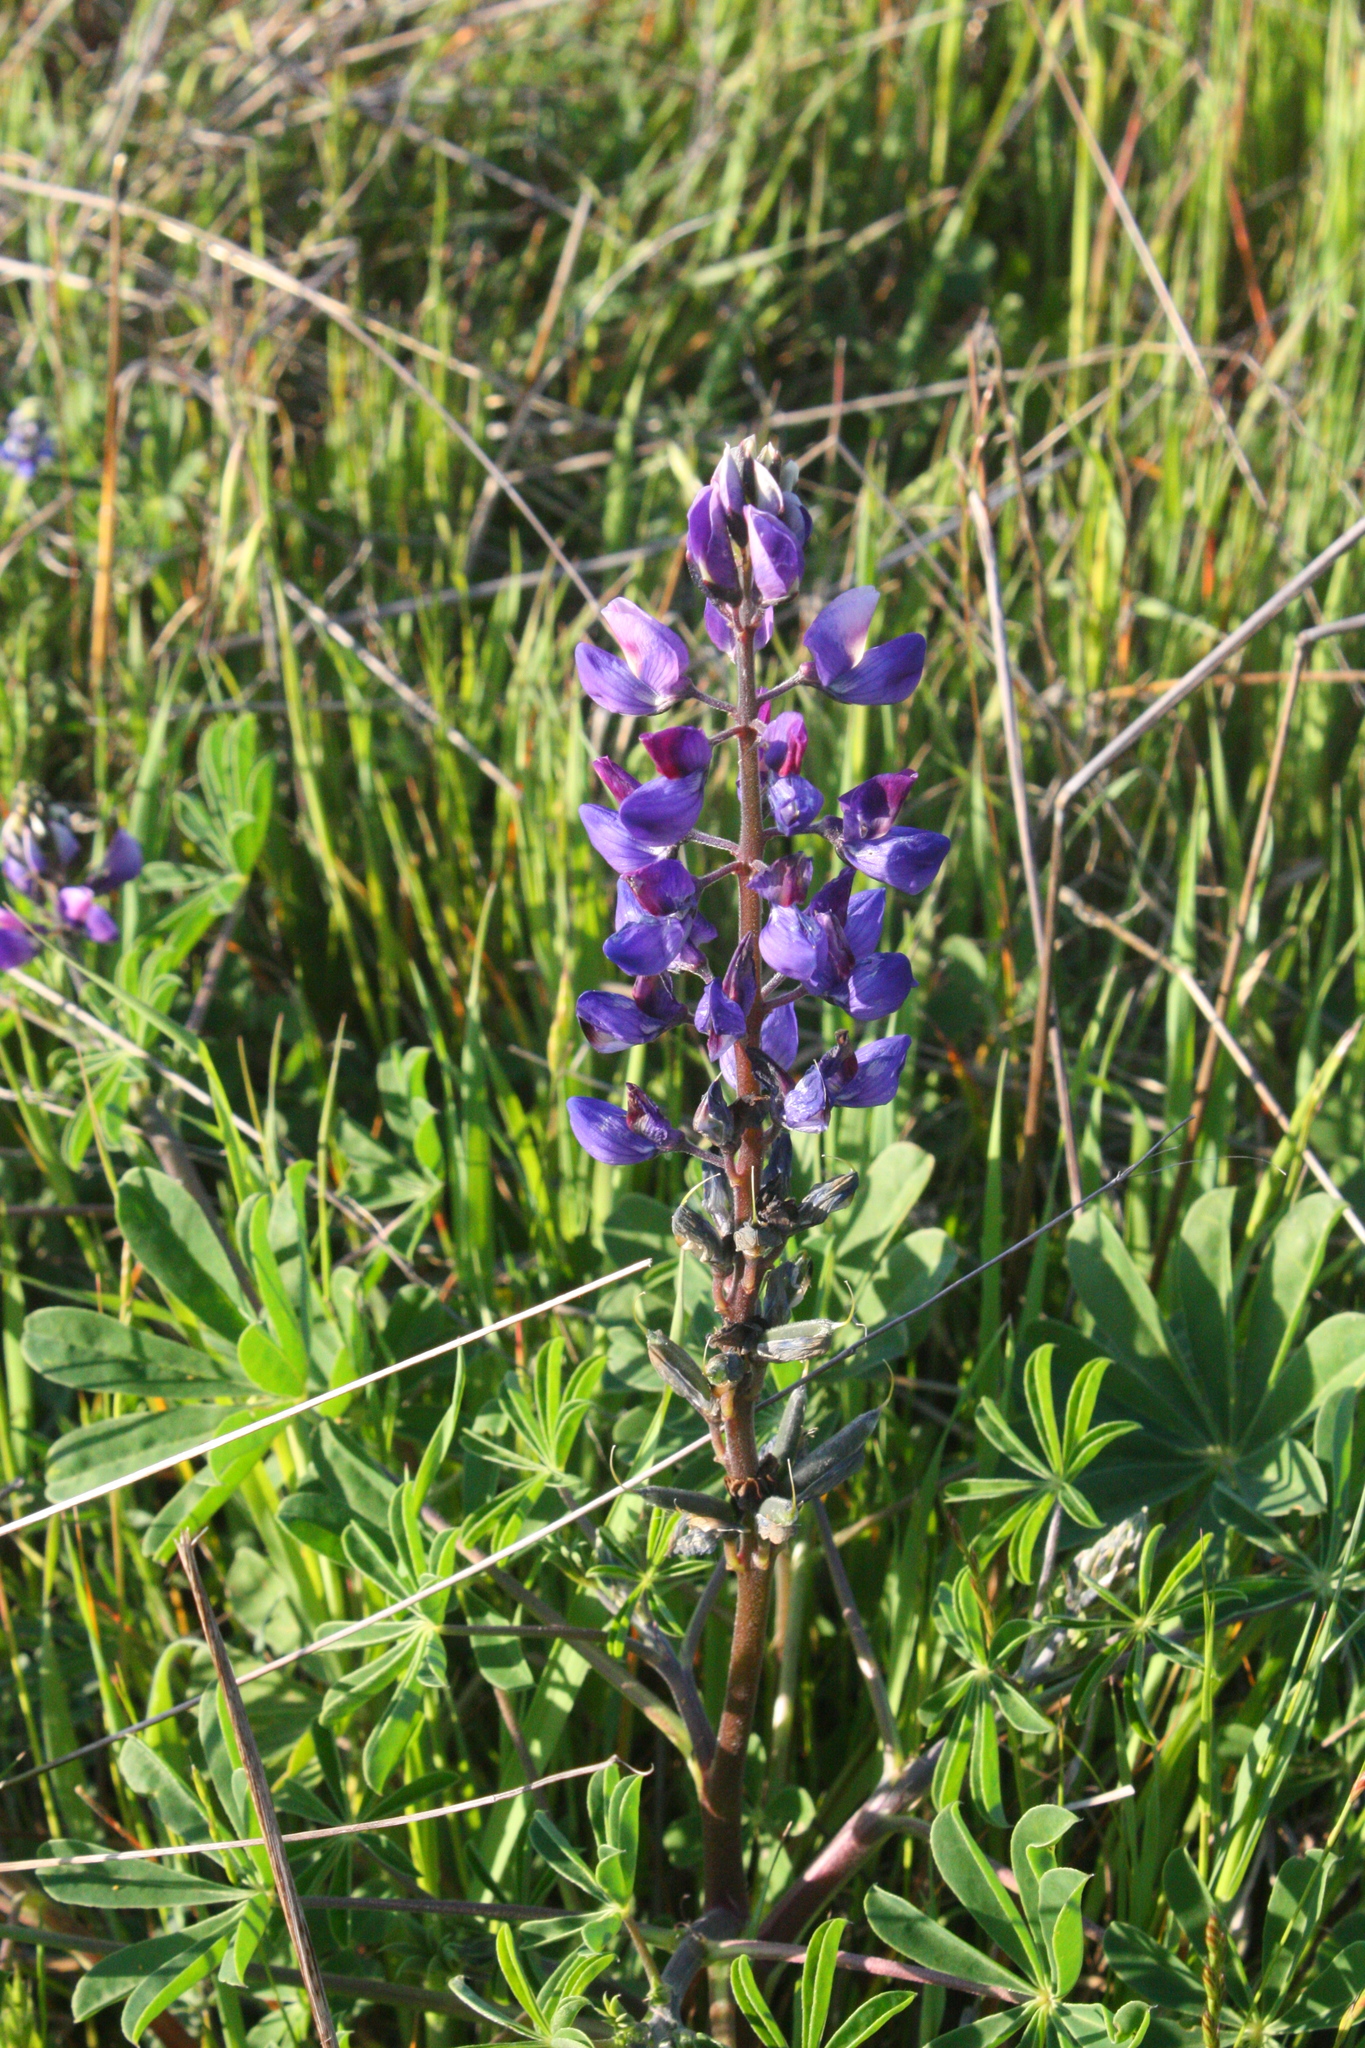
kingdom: Plantae
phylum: Tracheophyta
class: Magnoliopsida
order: Fabales
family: Fabaceae
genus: Lupinus
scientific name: Lupinus succulentus
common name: Arroyo lupine
